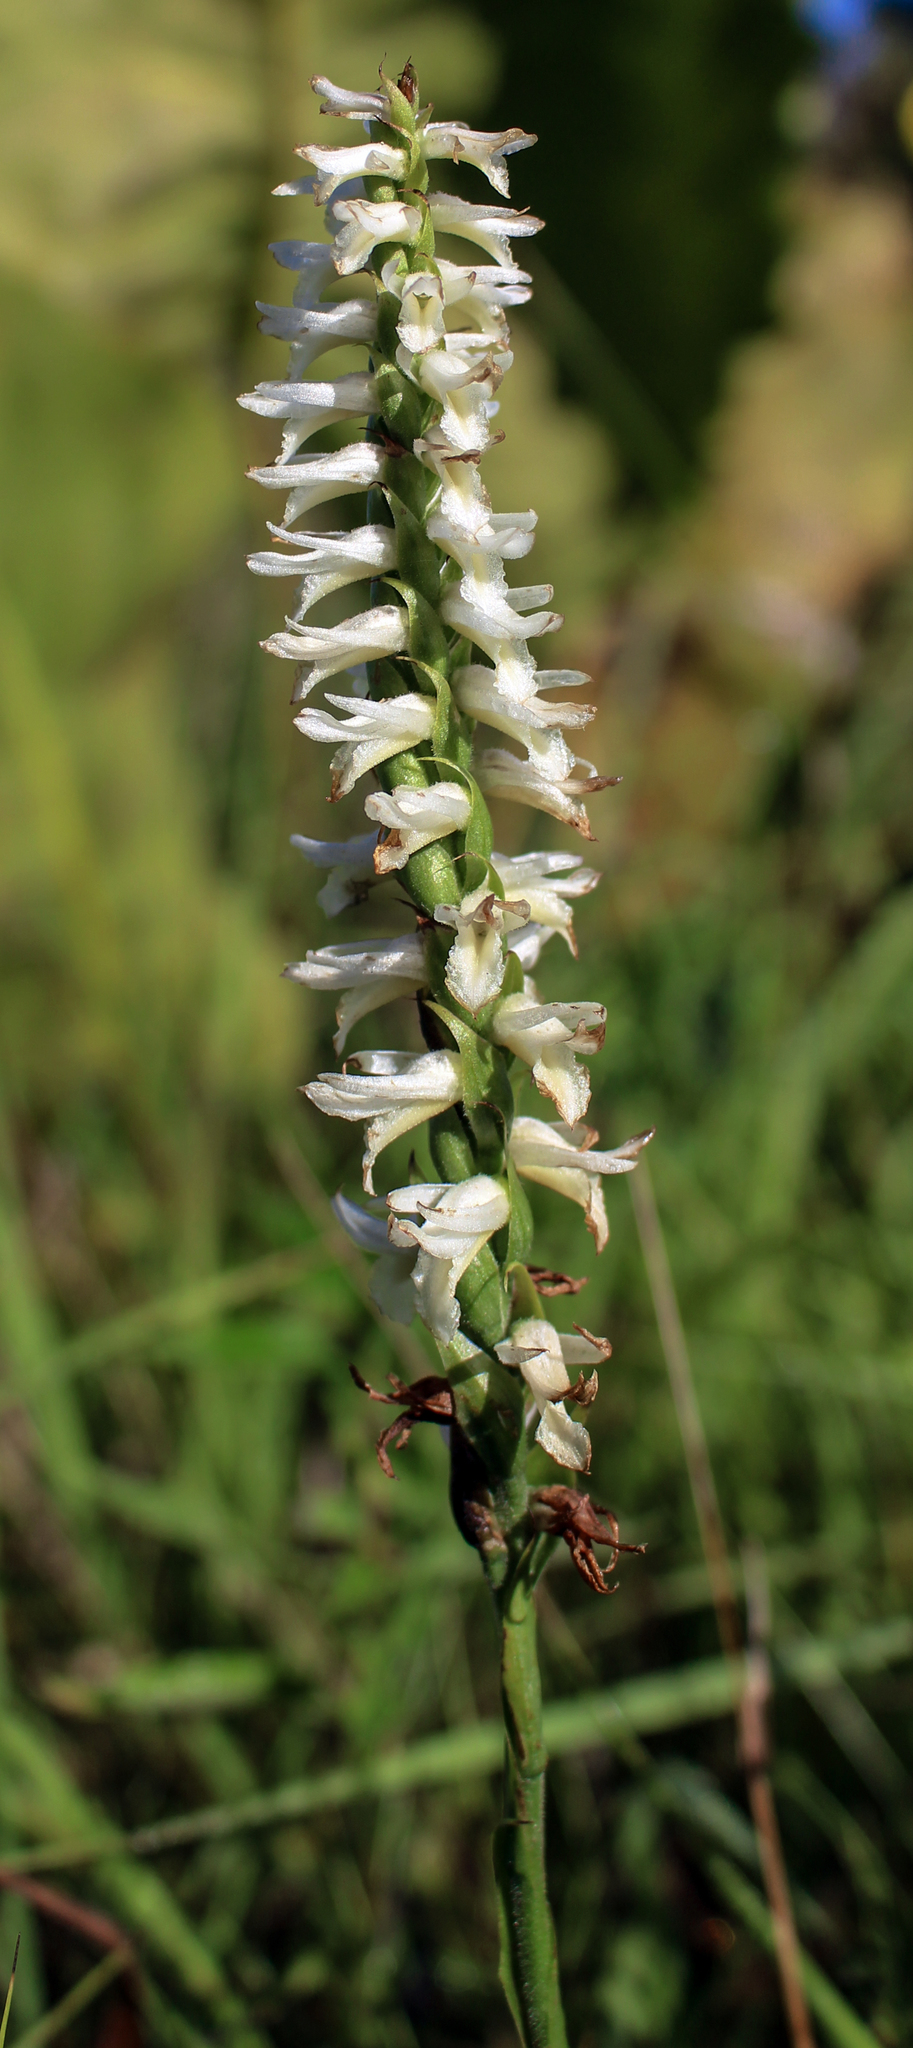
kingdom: Plantae
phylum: Tracheophyta
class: Liliopsida
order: Asparagales
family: Orchidaceae
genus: Spiranthes
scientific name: Spiranthes magnicamporum
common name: Great plains ladies'-tresses
